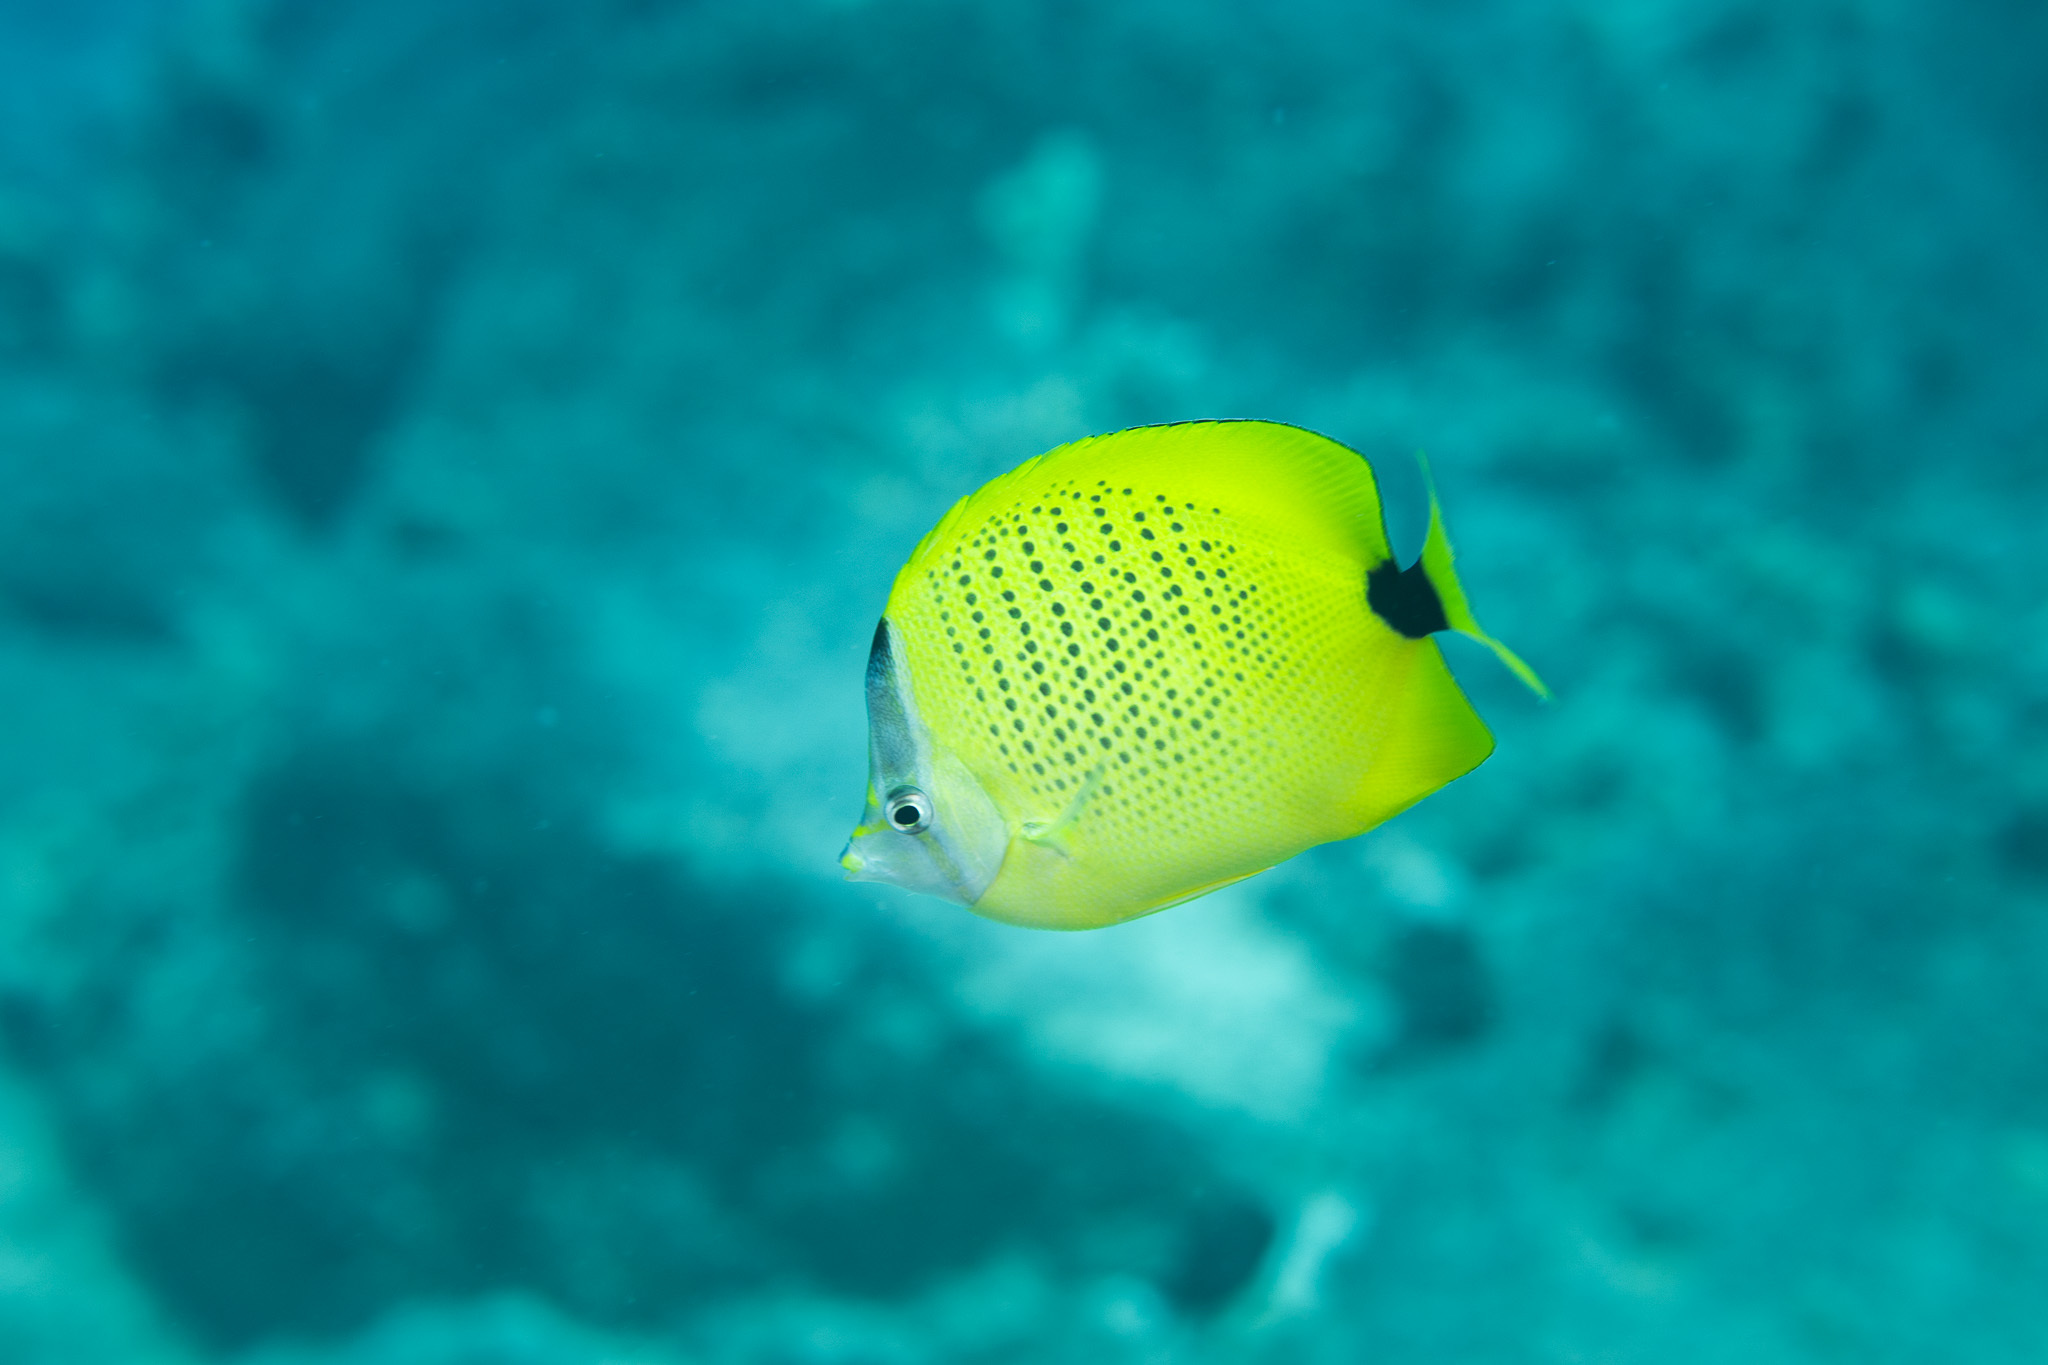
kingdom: Animalia
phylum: Chordata
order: Perciformes
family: Chaetodontidae
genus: Chaetodon
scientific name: Chaetodon miliaris
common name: Lemon butterflyfish
